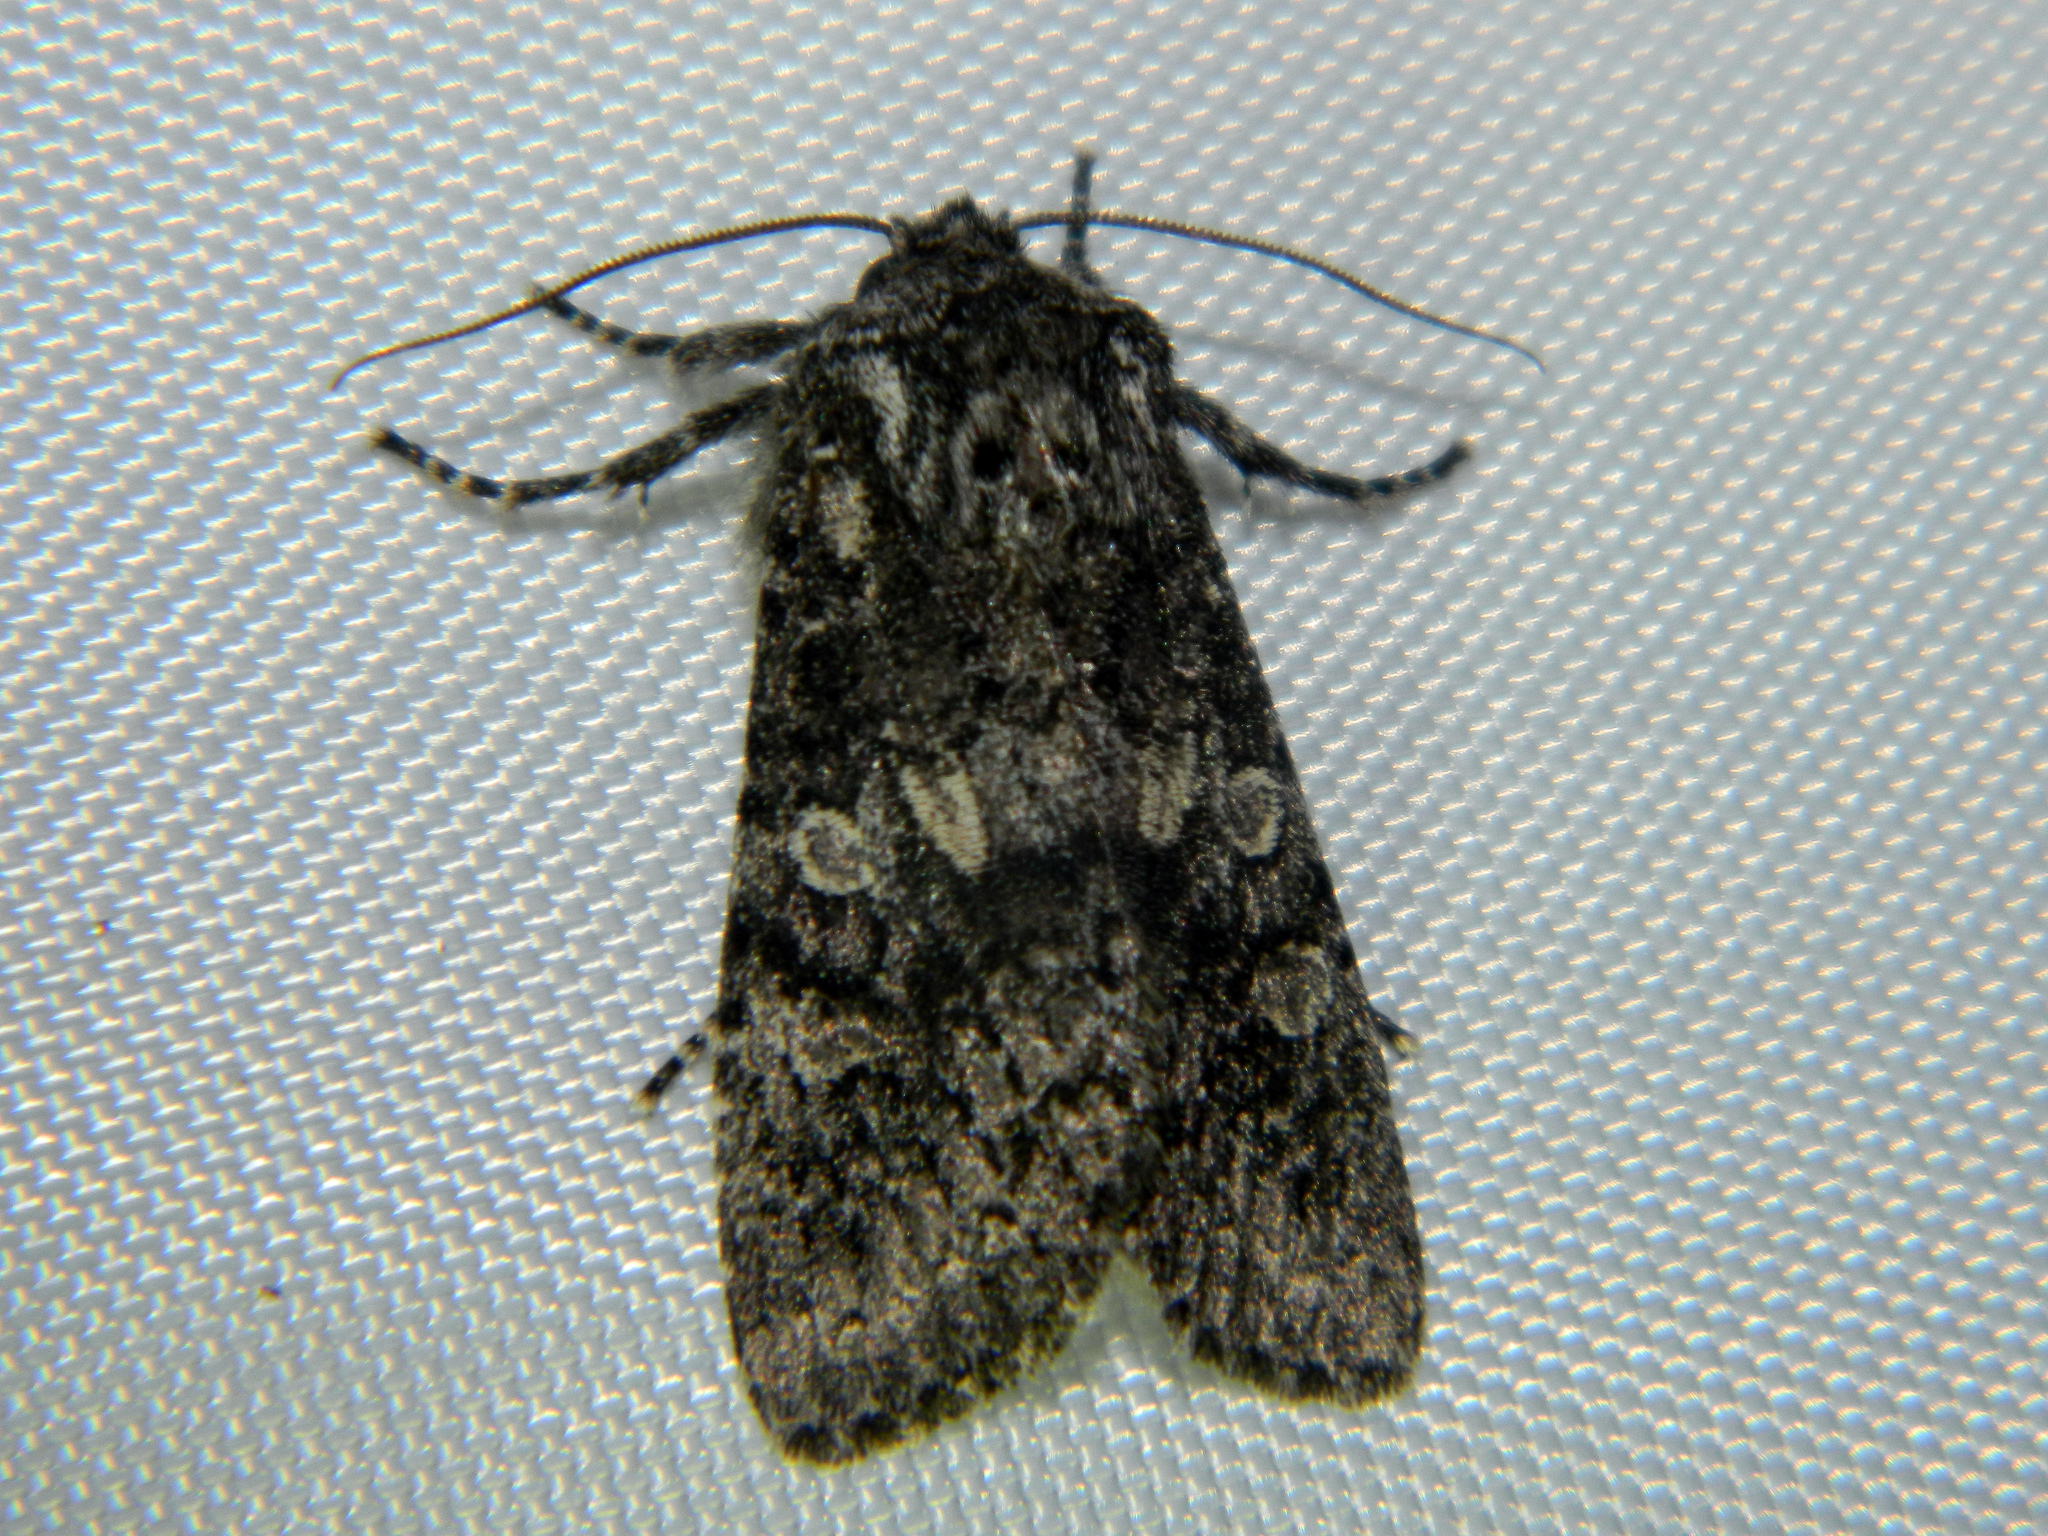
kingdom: Animalia
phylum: Arthropoda
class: Insecta
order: Lepidoptera
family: Noctuidae
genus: Egira
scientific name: Egira dolosa
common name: Lined black aspen cat.
